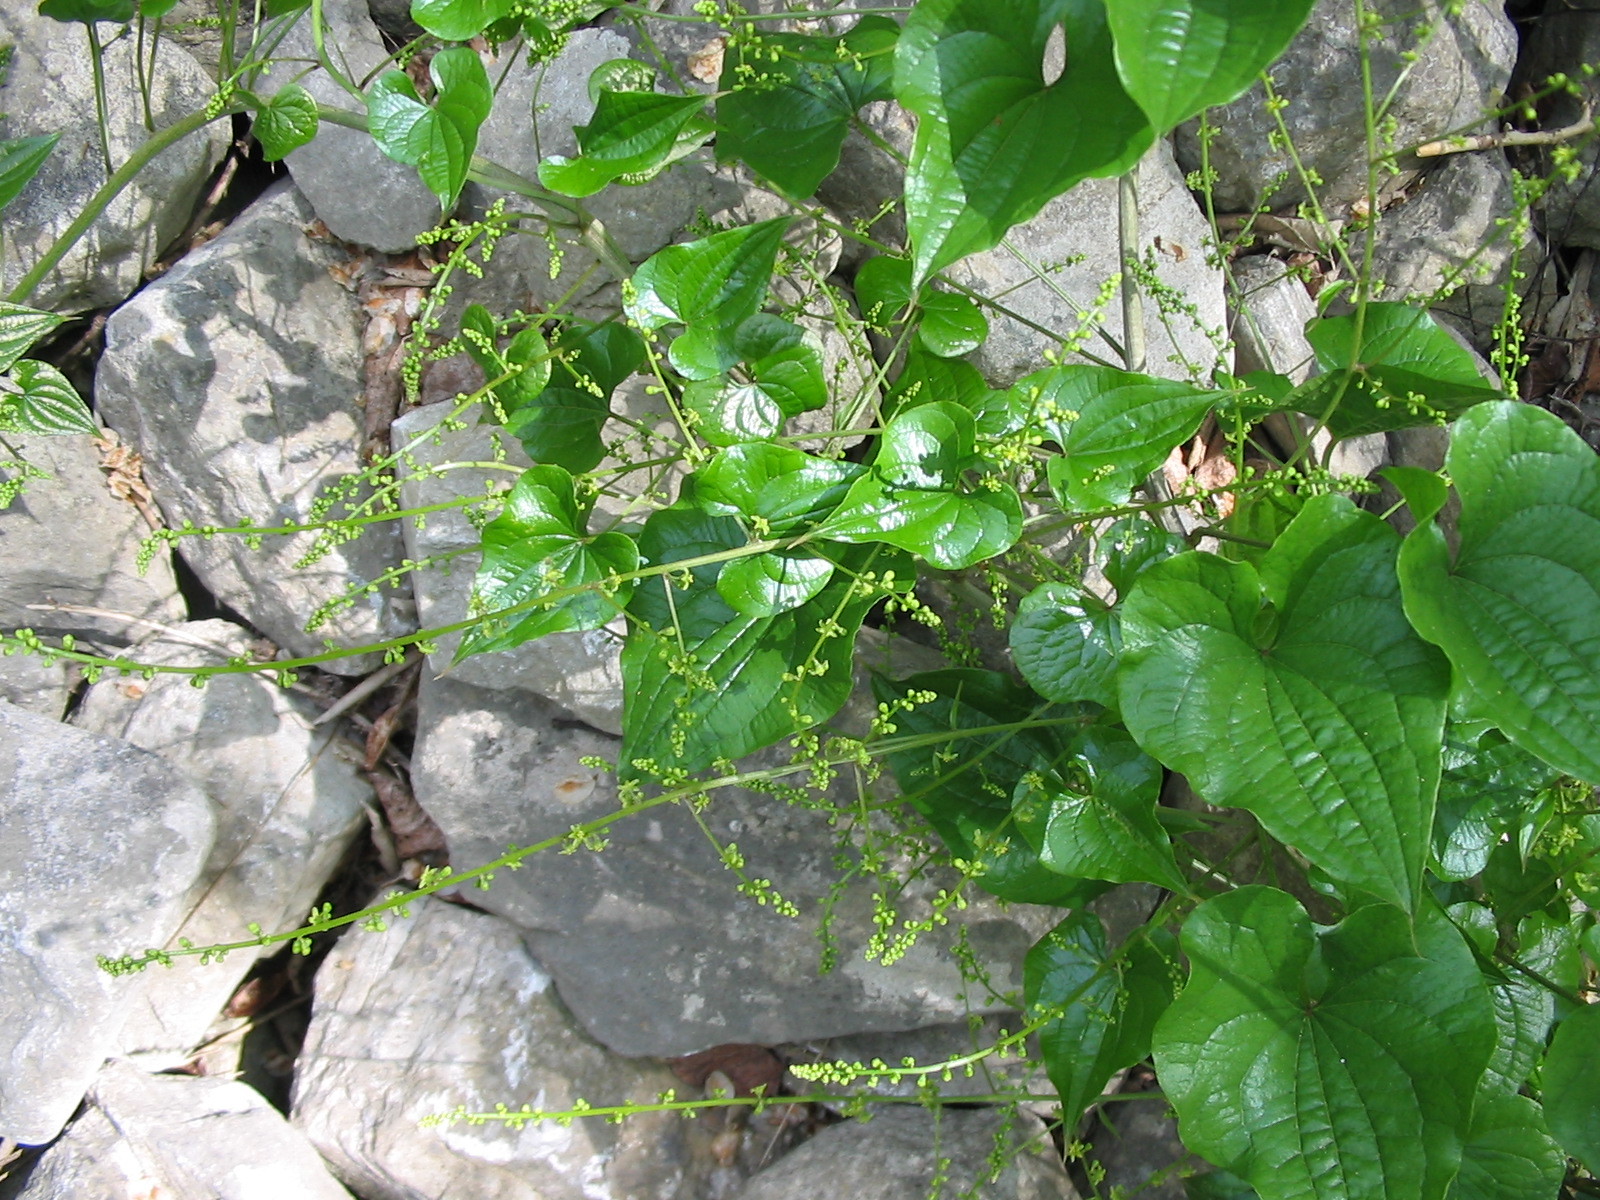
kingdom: Plantae
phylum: Tracheophyta
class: Liliopsida
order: Dioscoreales
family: Dioscoreaceae
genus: Dioscorea
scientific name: Dioscorea communis
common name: Black-bindweed
